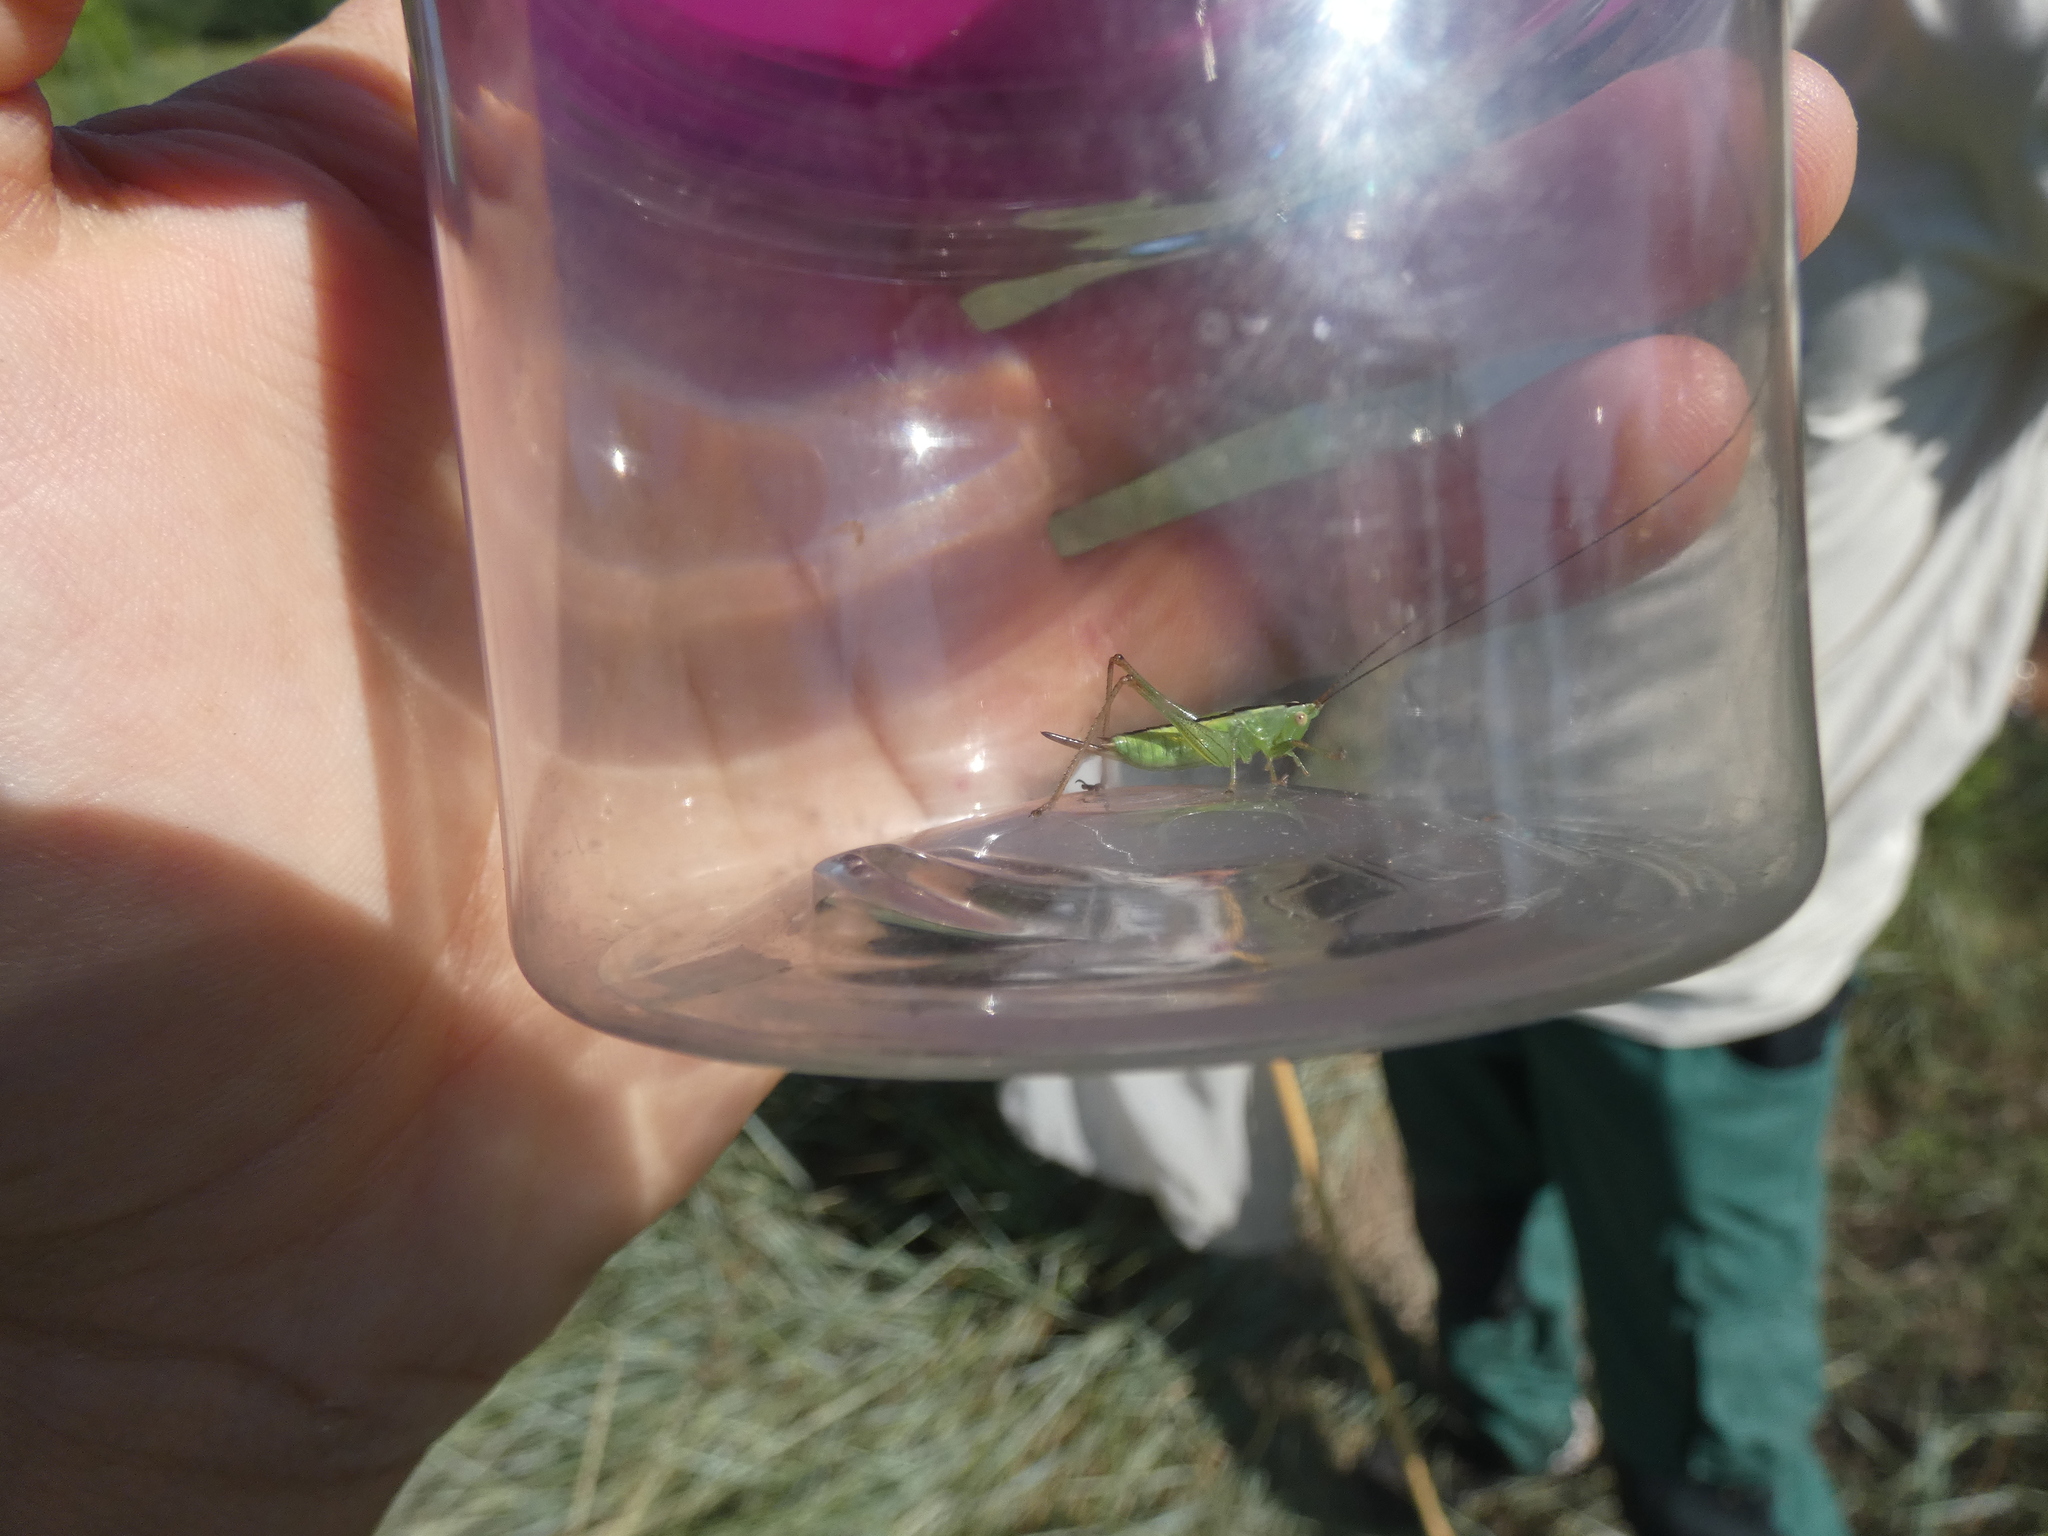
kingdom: Animalia
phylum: Arthropoda
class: Insecta
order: Orthoptera
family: Tettigoniidae
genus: Conocephalus
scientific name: Conocephalus fuscus
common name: Long-winged conehead
